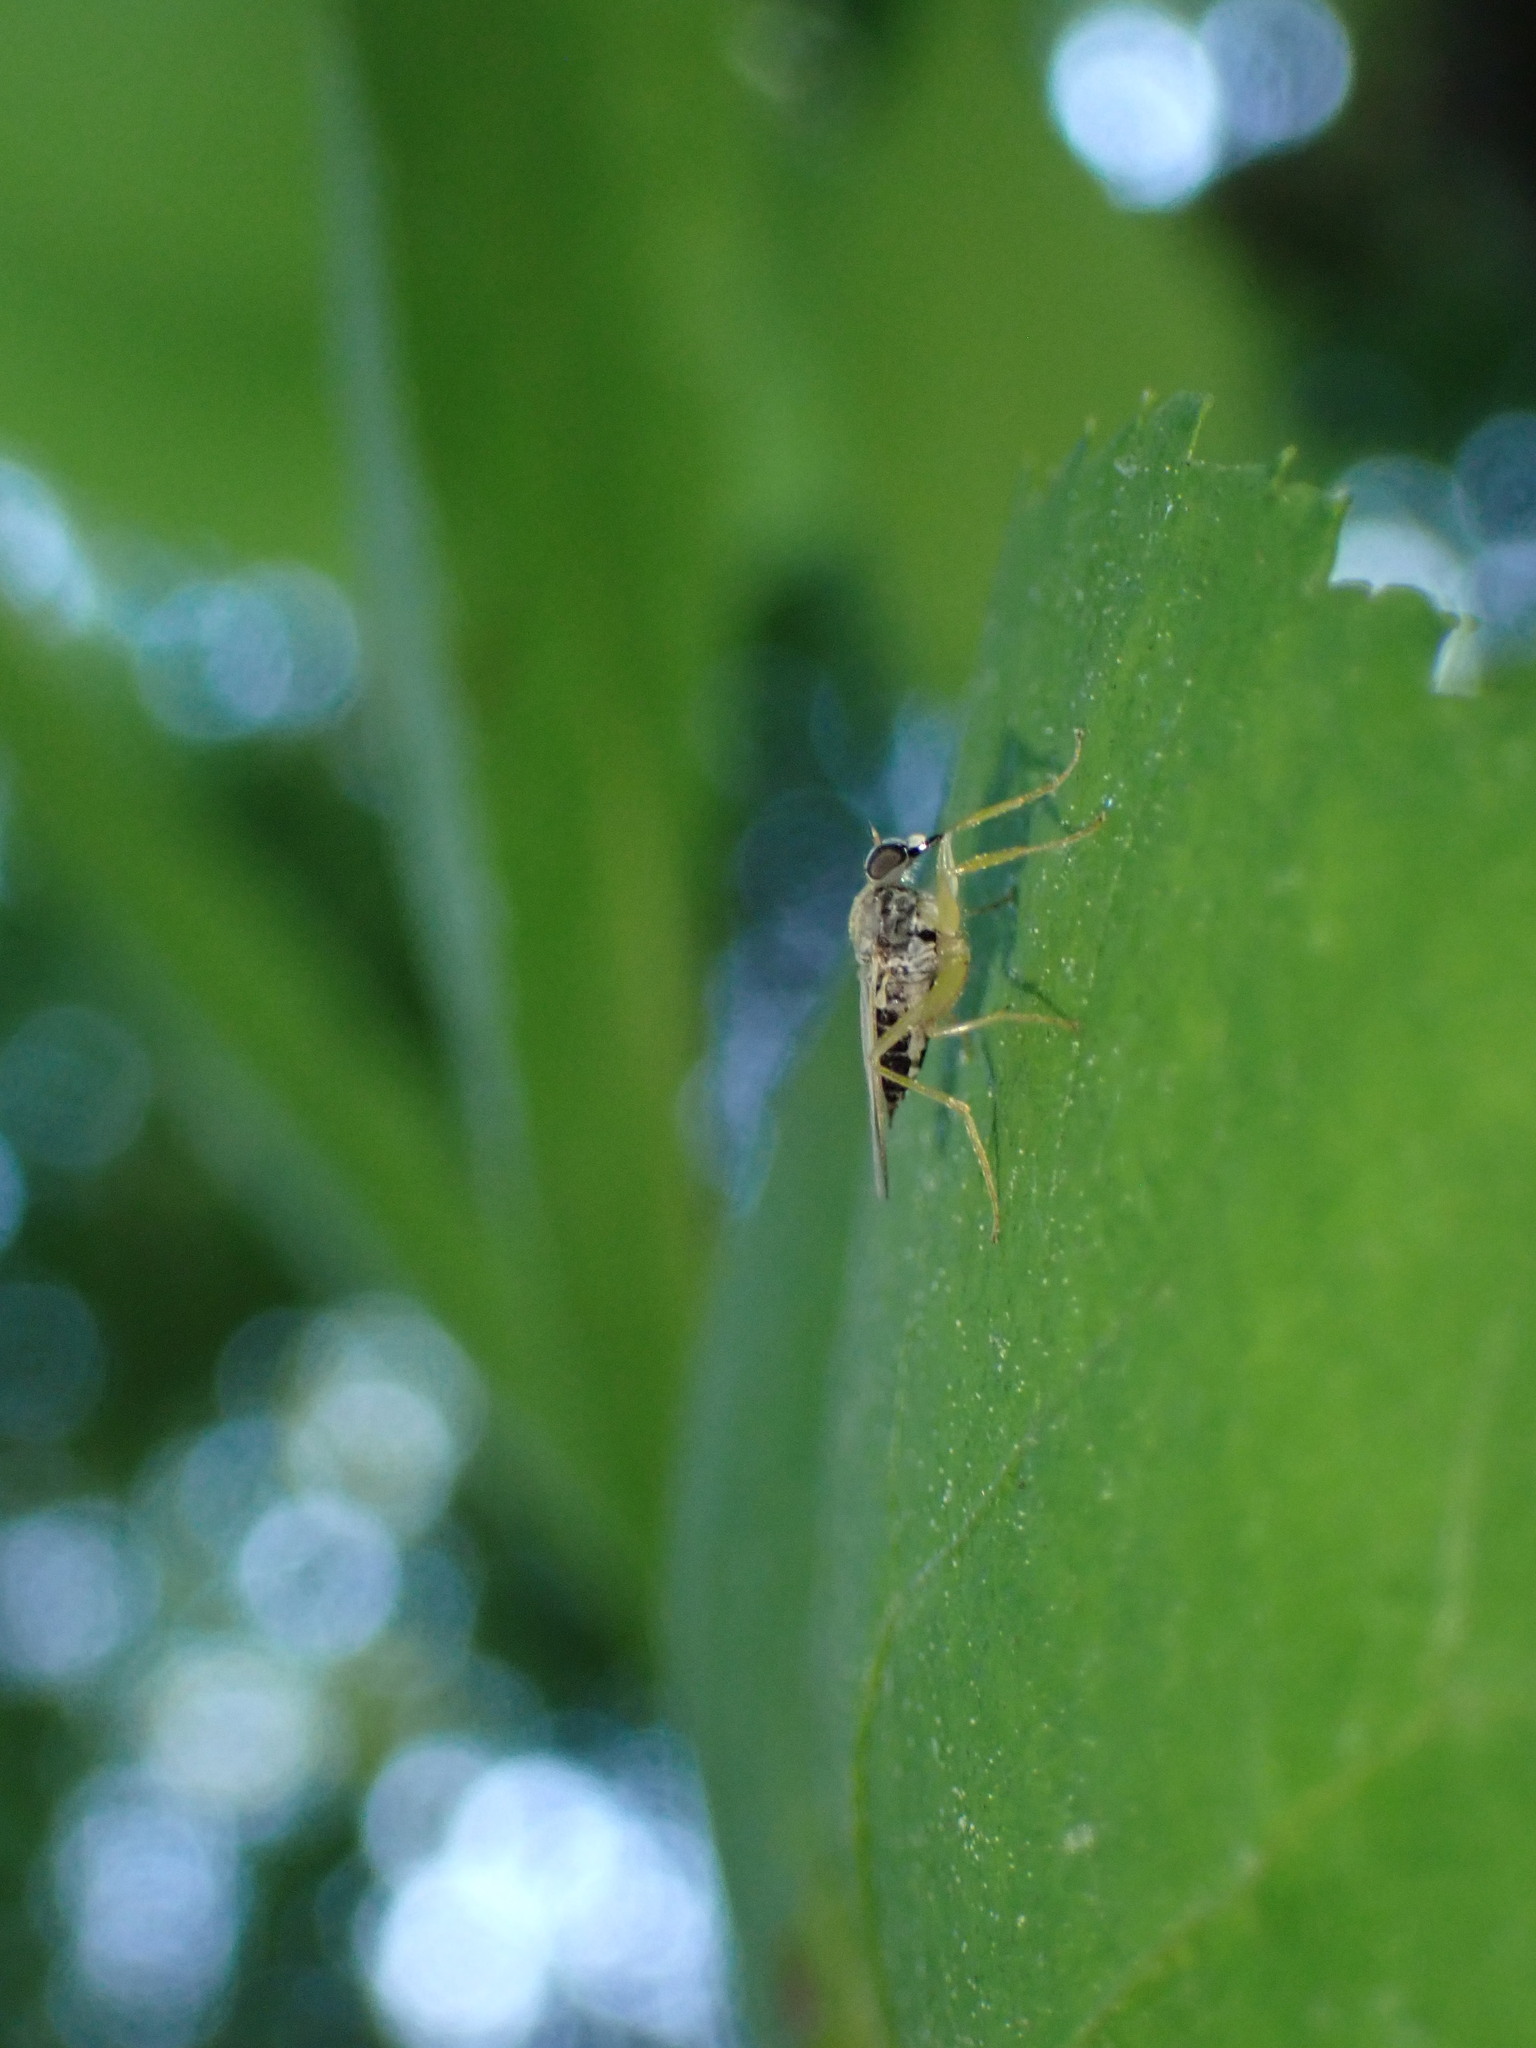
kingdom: Animalia
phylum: Arthropoda
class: Insecta
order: Diptera
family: Hybotidae
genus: Platypalpus
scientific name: Platypalpus
